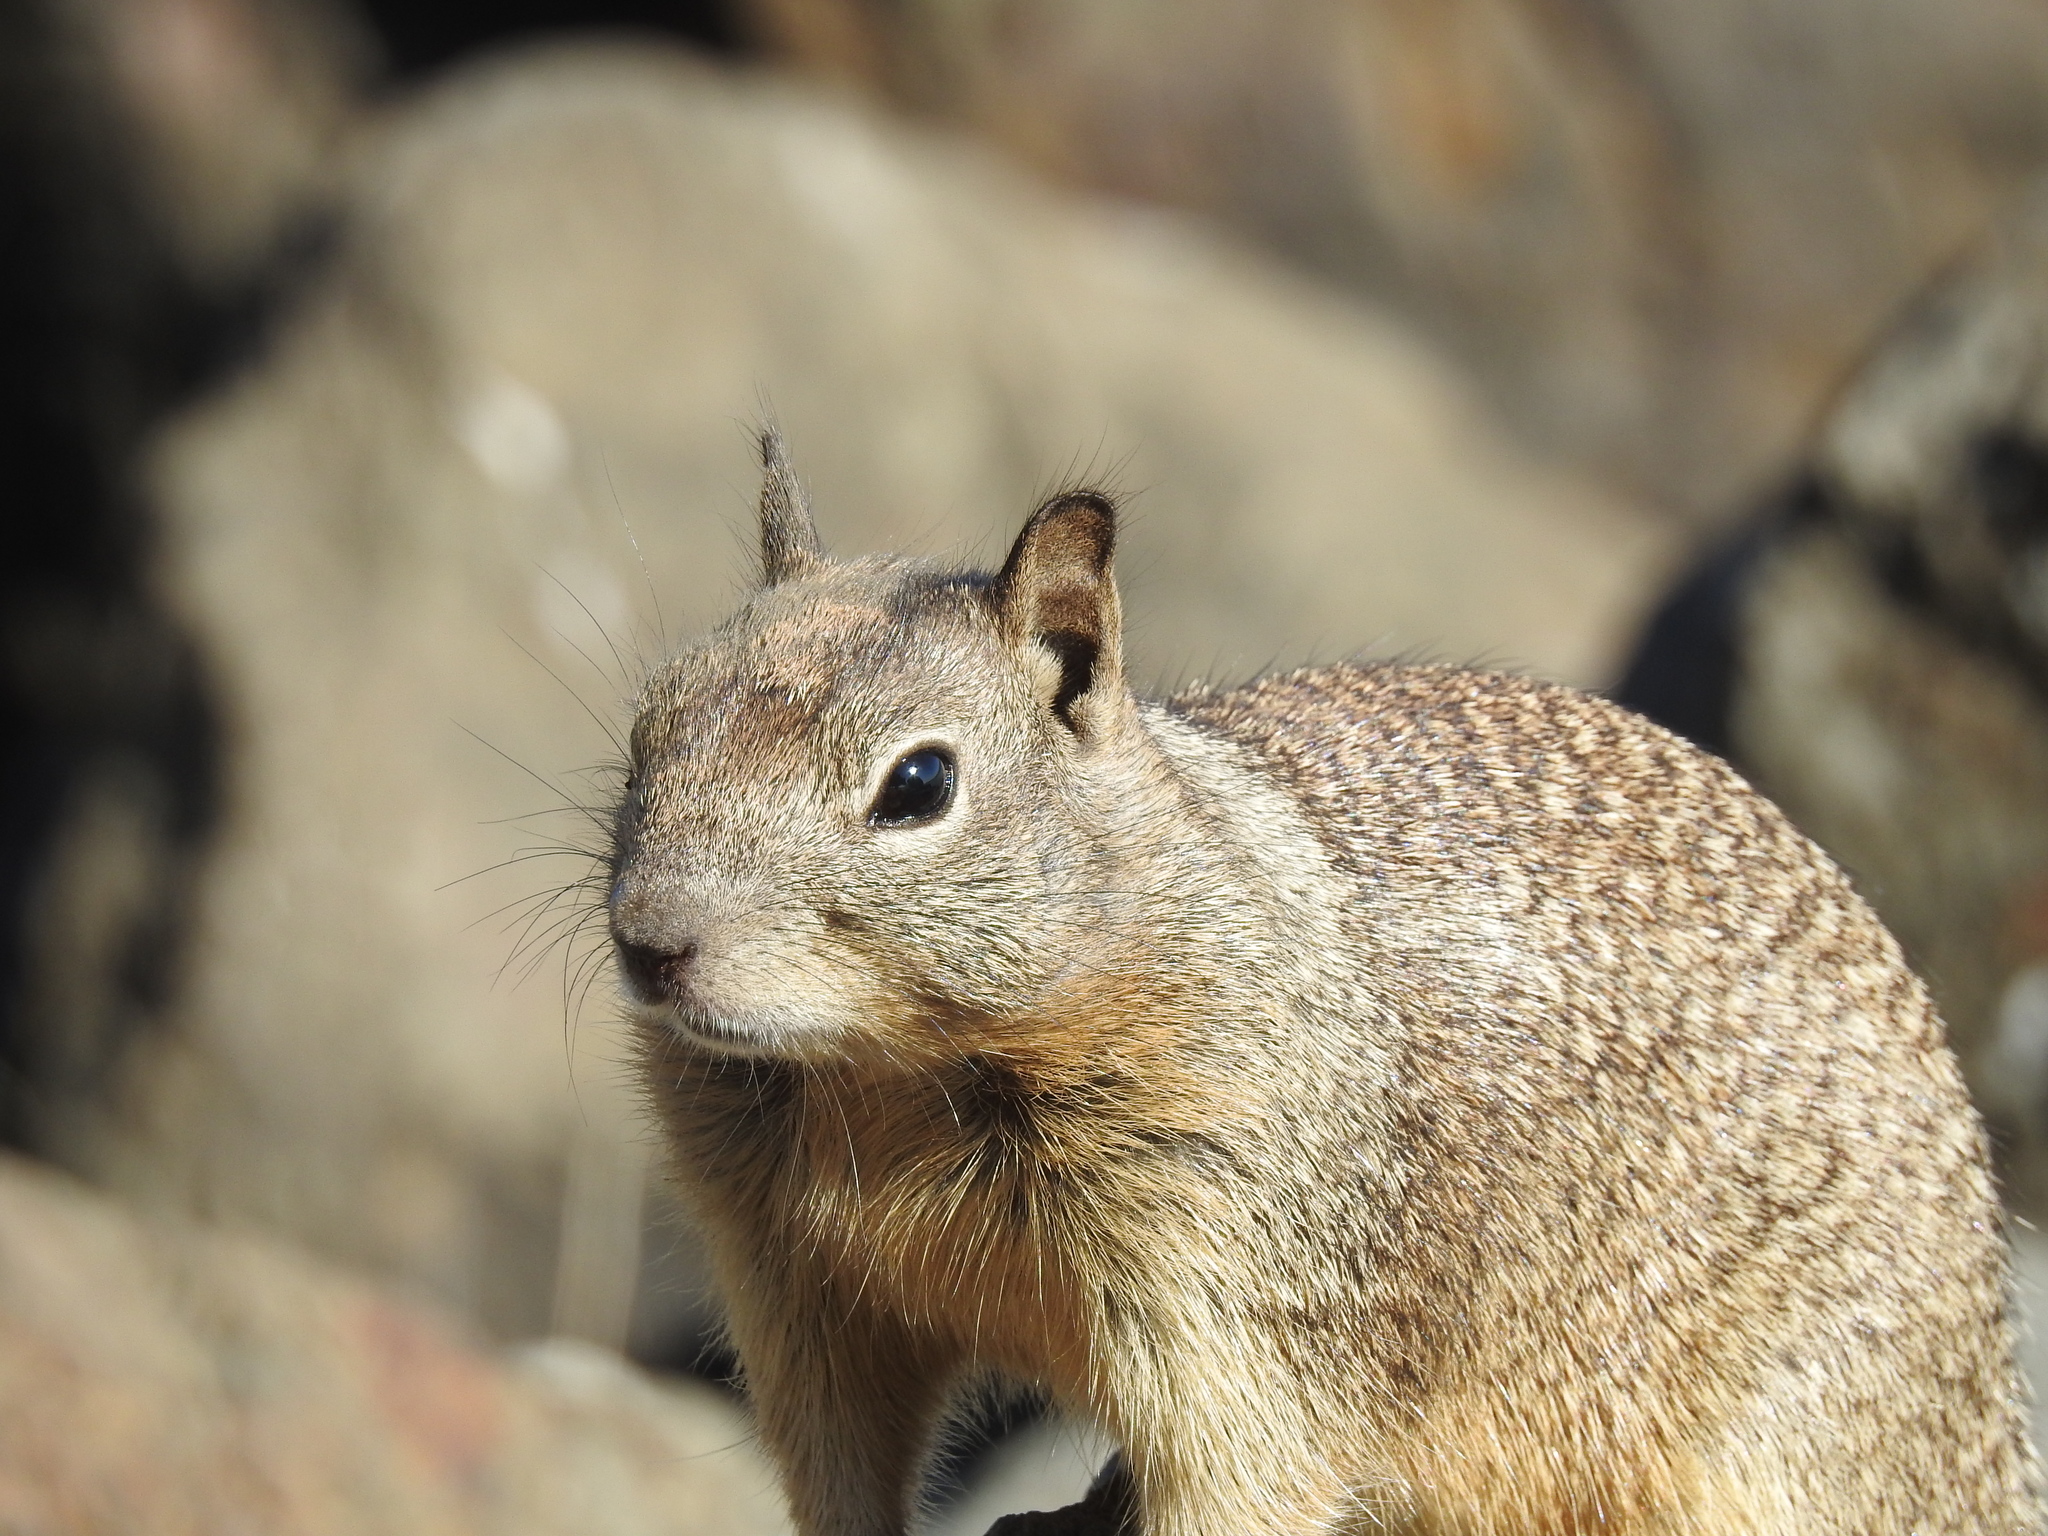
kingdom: Animalia
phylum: Chordata
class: Mammalia
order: Rodentia
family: Sciuridae
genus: Otospermophilus
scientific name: Otospermophilus beecheyi
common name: California ground squirrel
